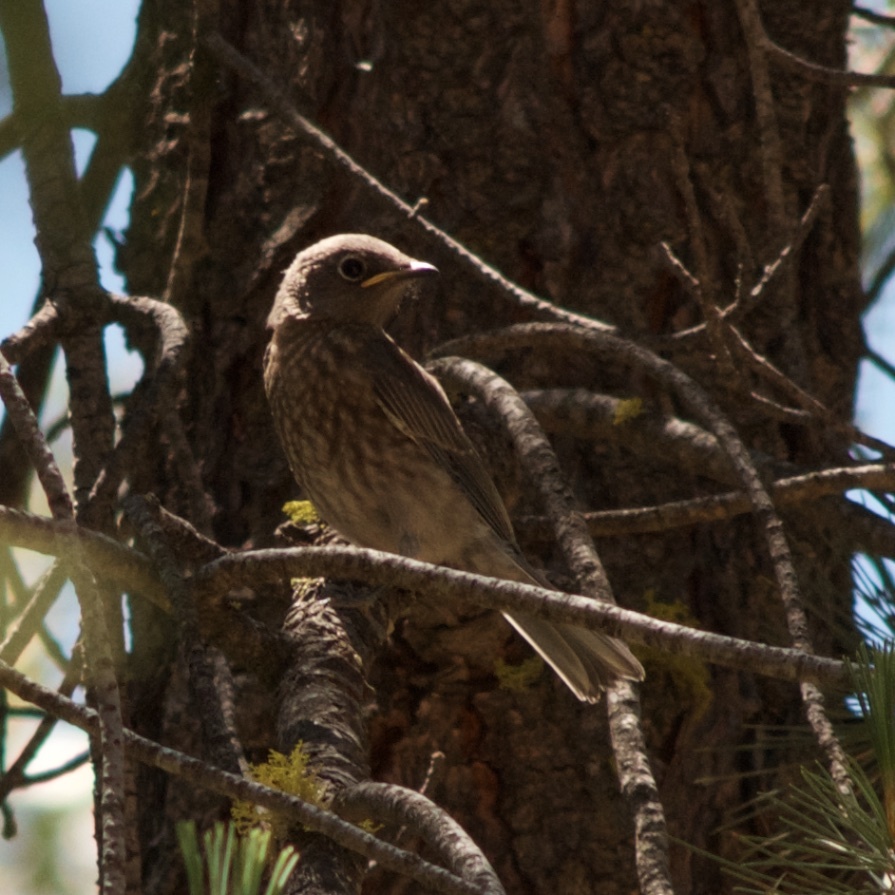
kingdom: Animalia
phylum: Chordata
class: Aves
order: Passeriformes
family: Turdidae
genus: Sialia
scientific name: Sialia mexicana
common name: Western bluebird
